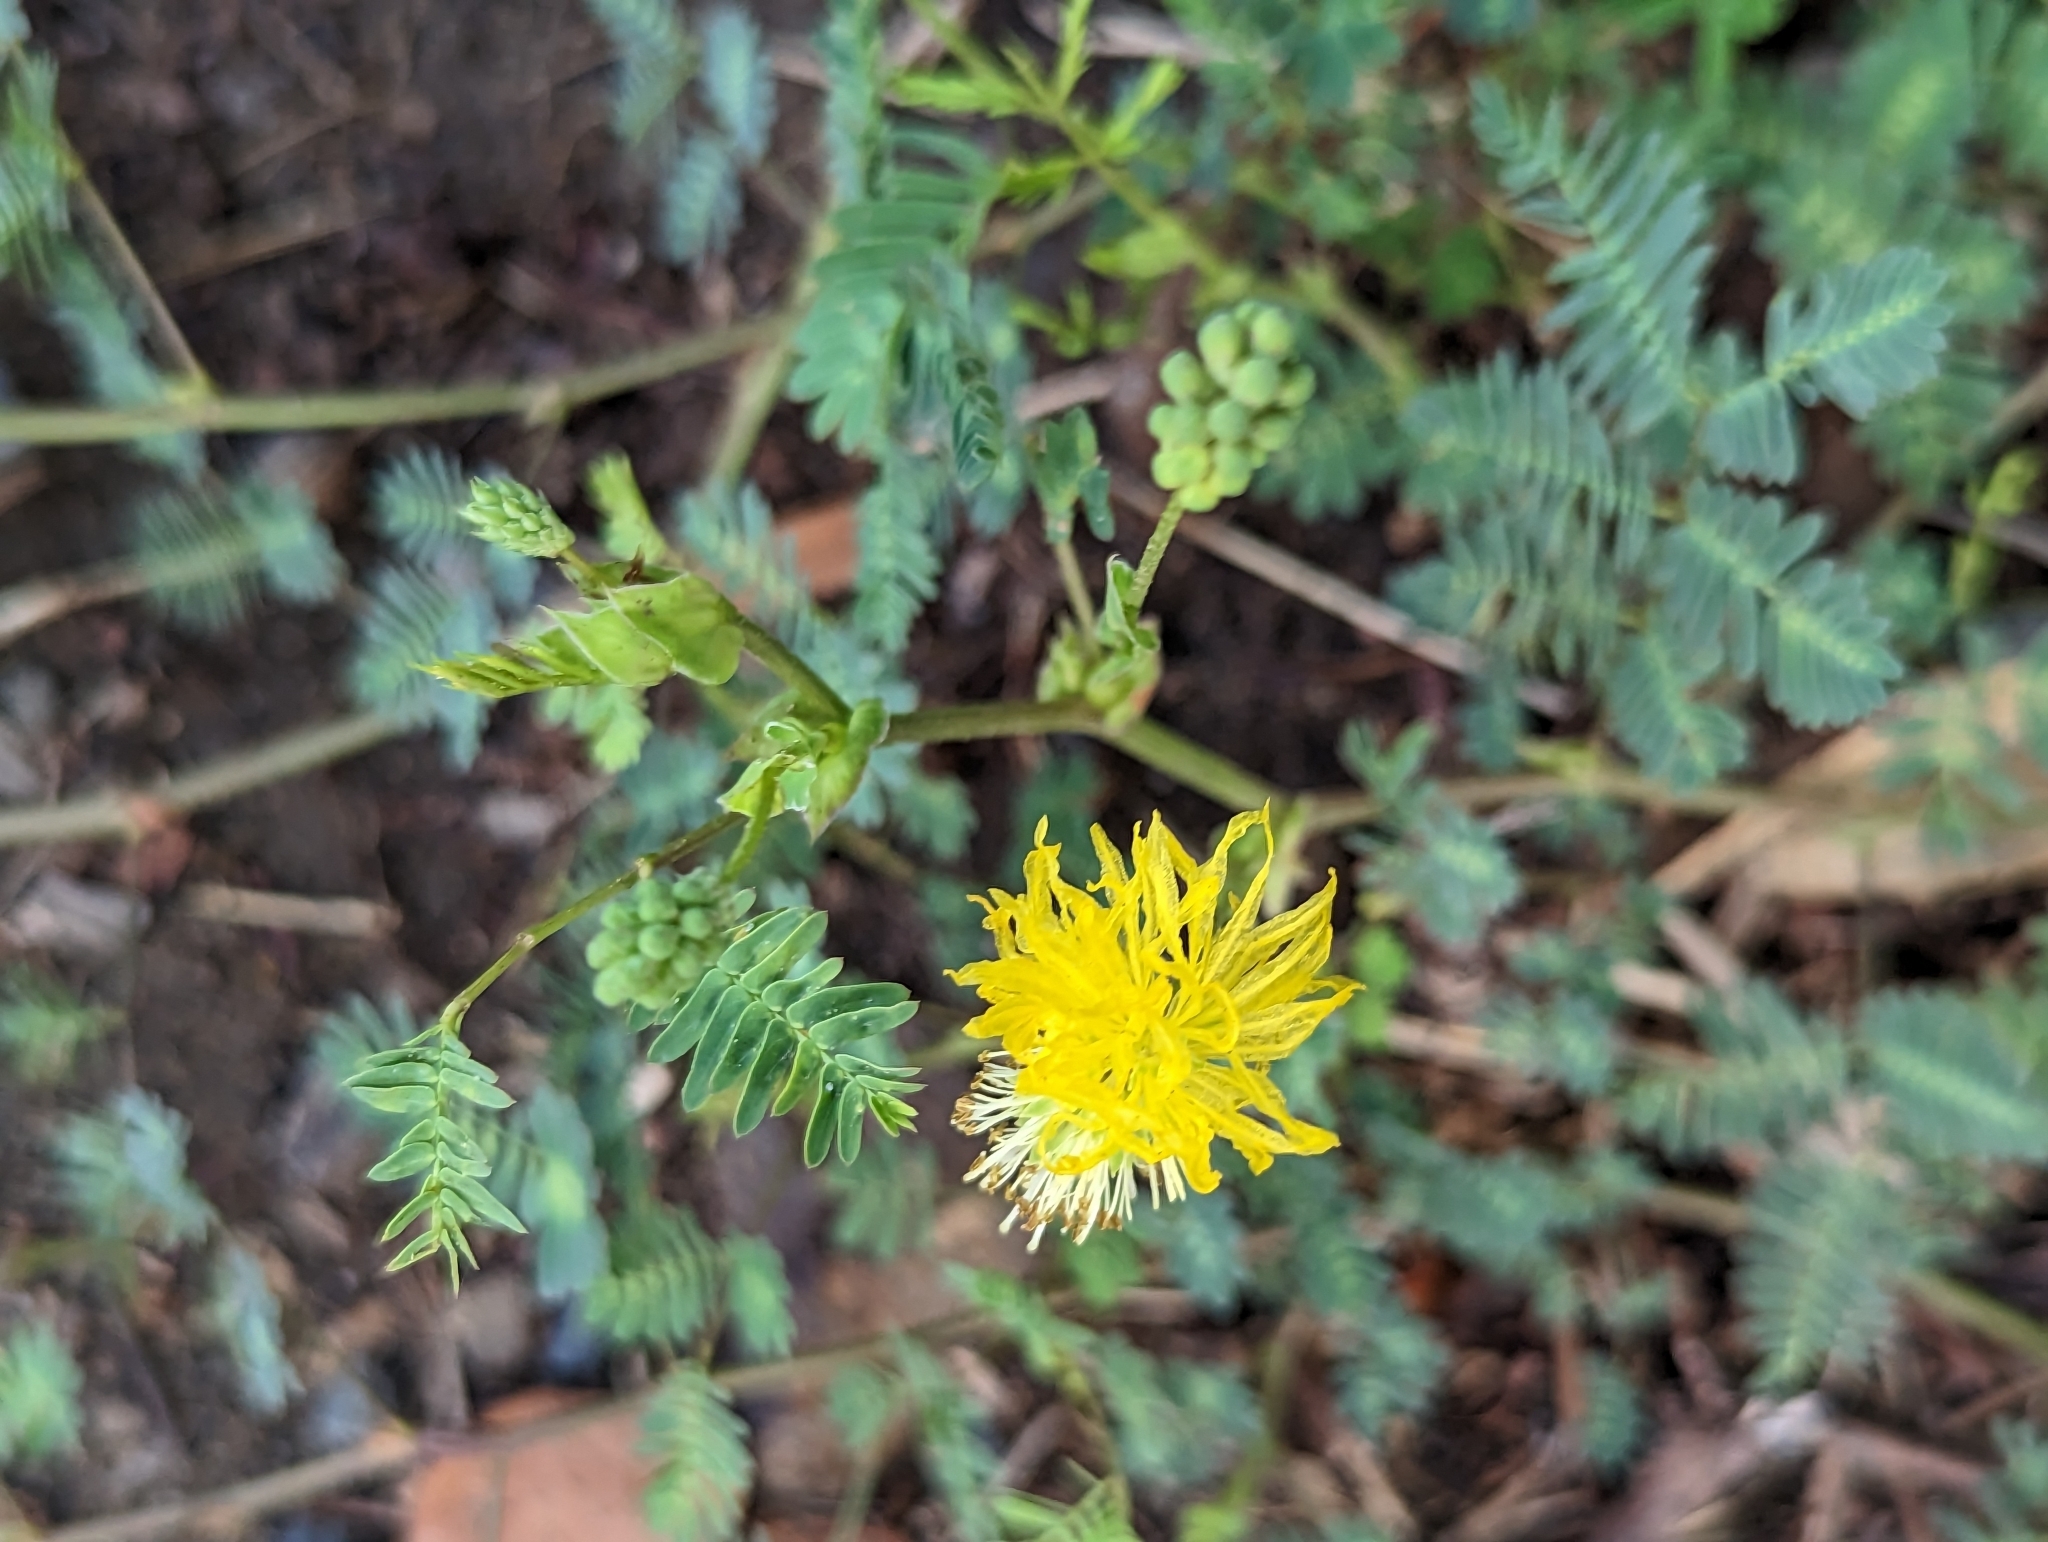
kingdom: Plantae
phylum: Tracheophyta
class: Magnoliopsida
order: Fabales
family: Fabaceae
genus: Neptunia
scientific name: Neptunia plena
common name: Dead and awake
